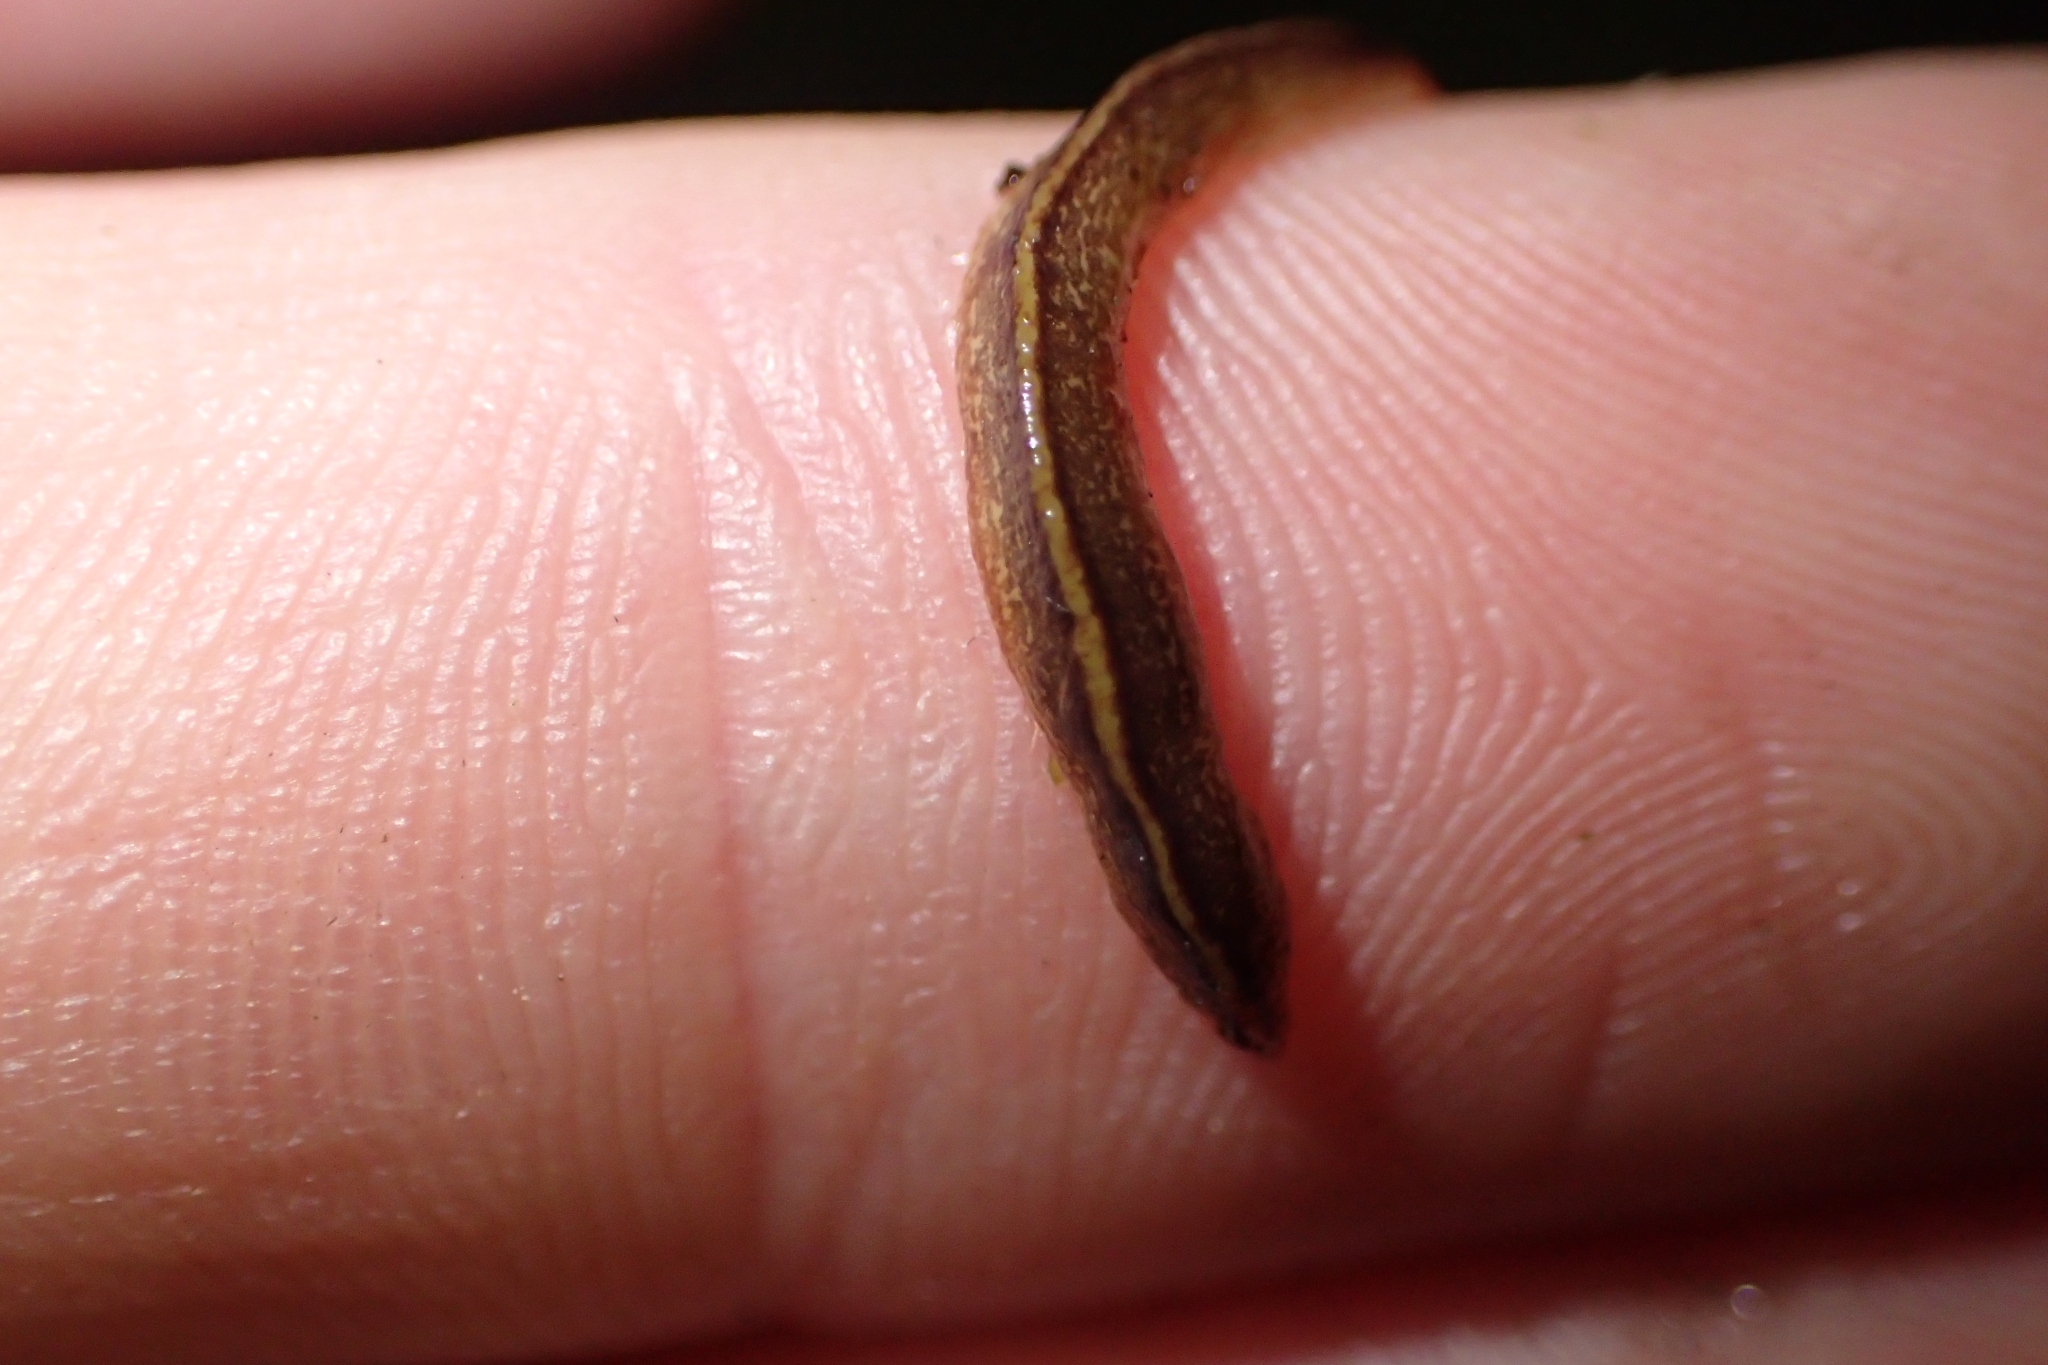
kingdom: Animalia
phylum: Platyhelminthes
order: Tricladida
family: Geoplanidae
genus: Newzealandia
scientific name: Newzealandia graffii
